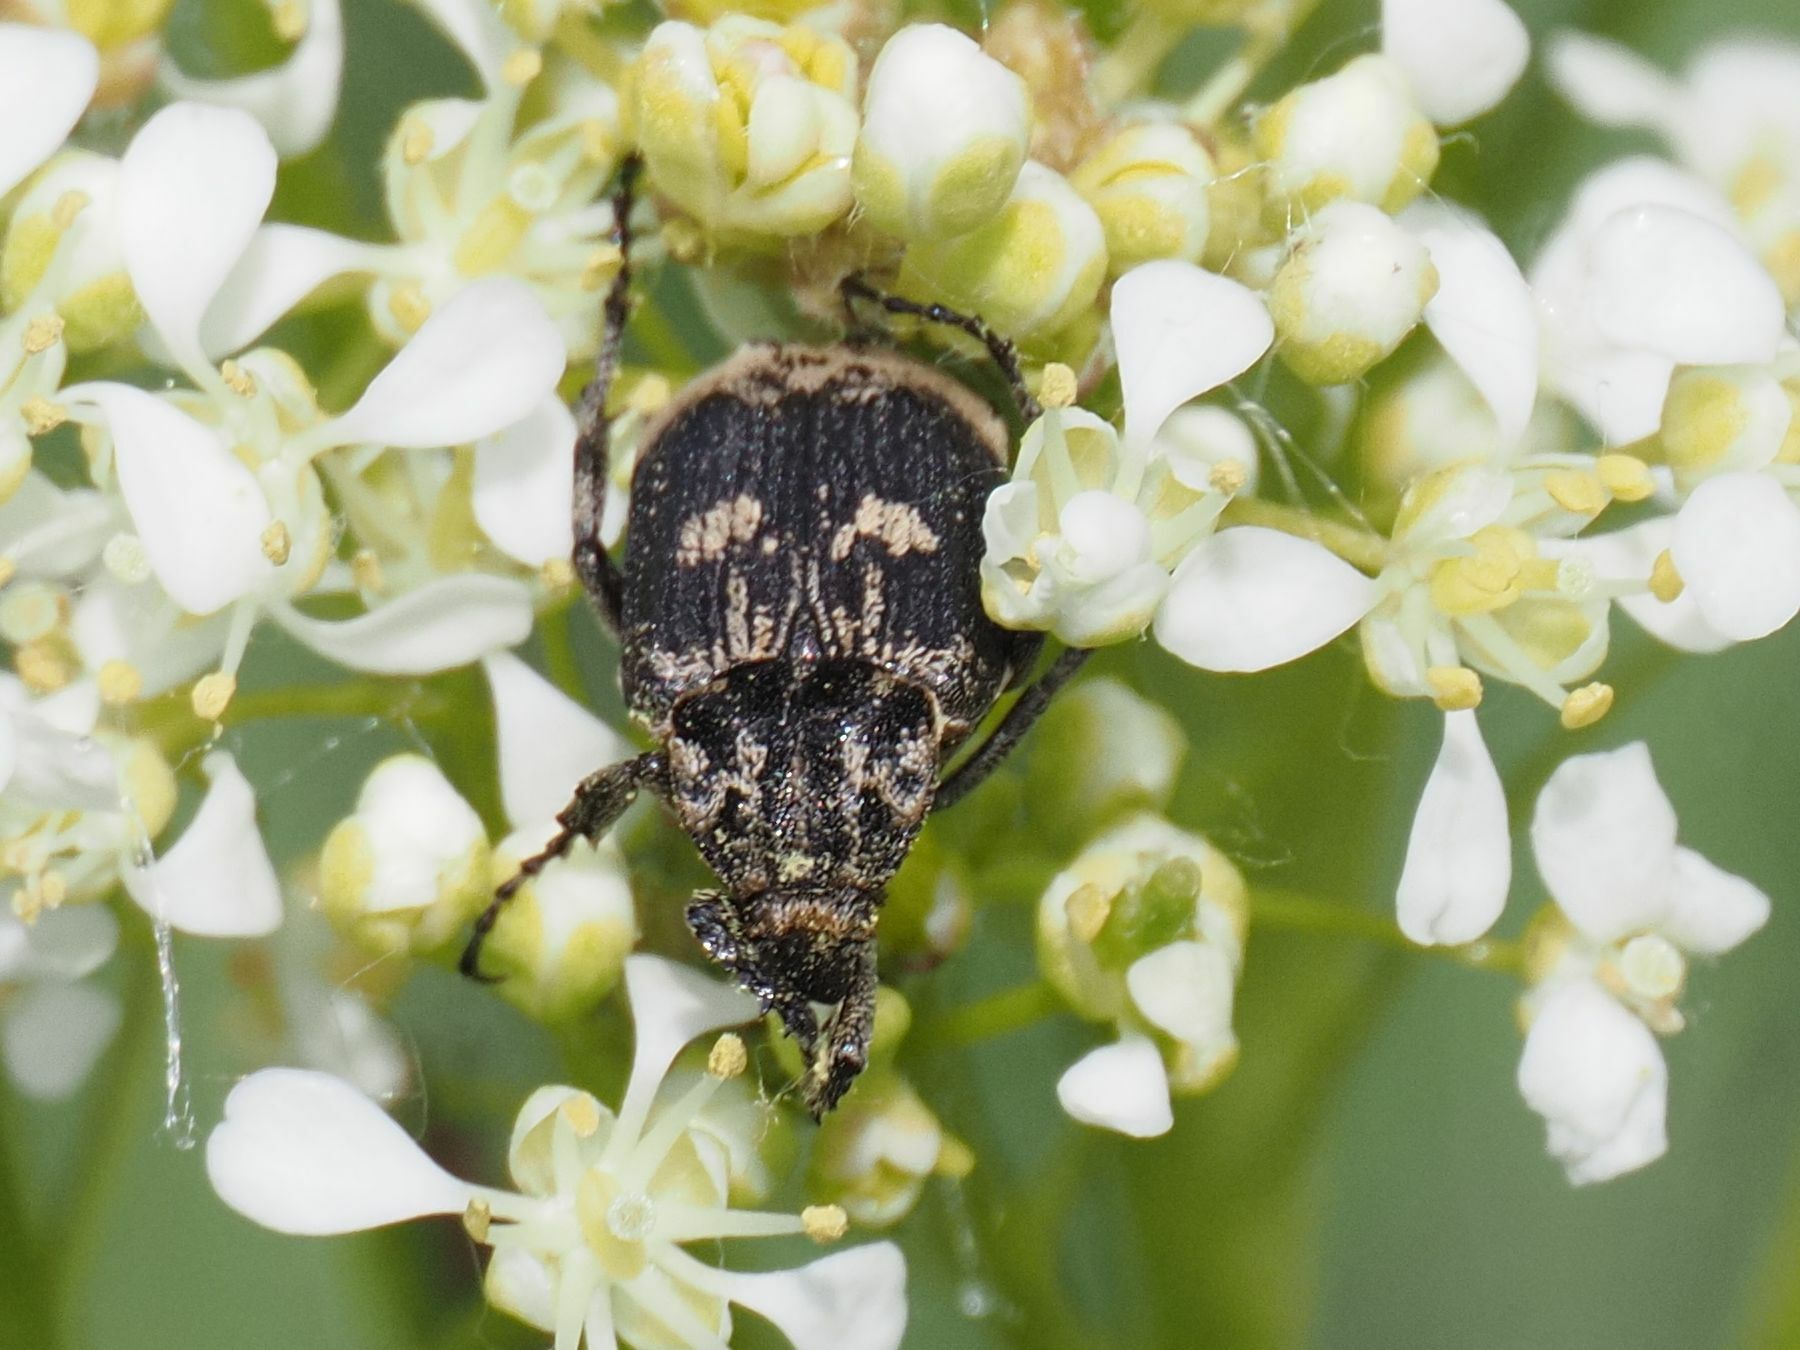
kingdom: Animalia
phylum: Arthropoda
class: Insecta
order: Coleoptera
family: Scarabaeidae
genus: Valgus
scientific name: Valgus hemipterus
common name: Bug flower chafer
